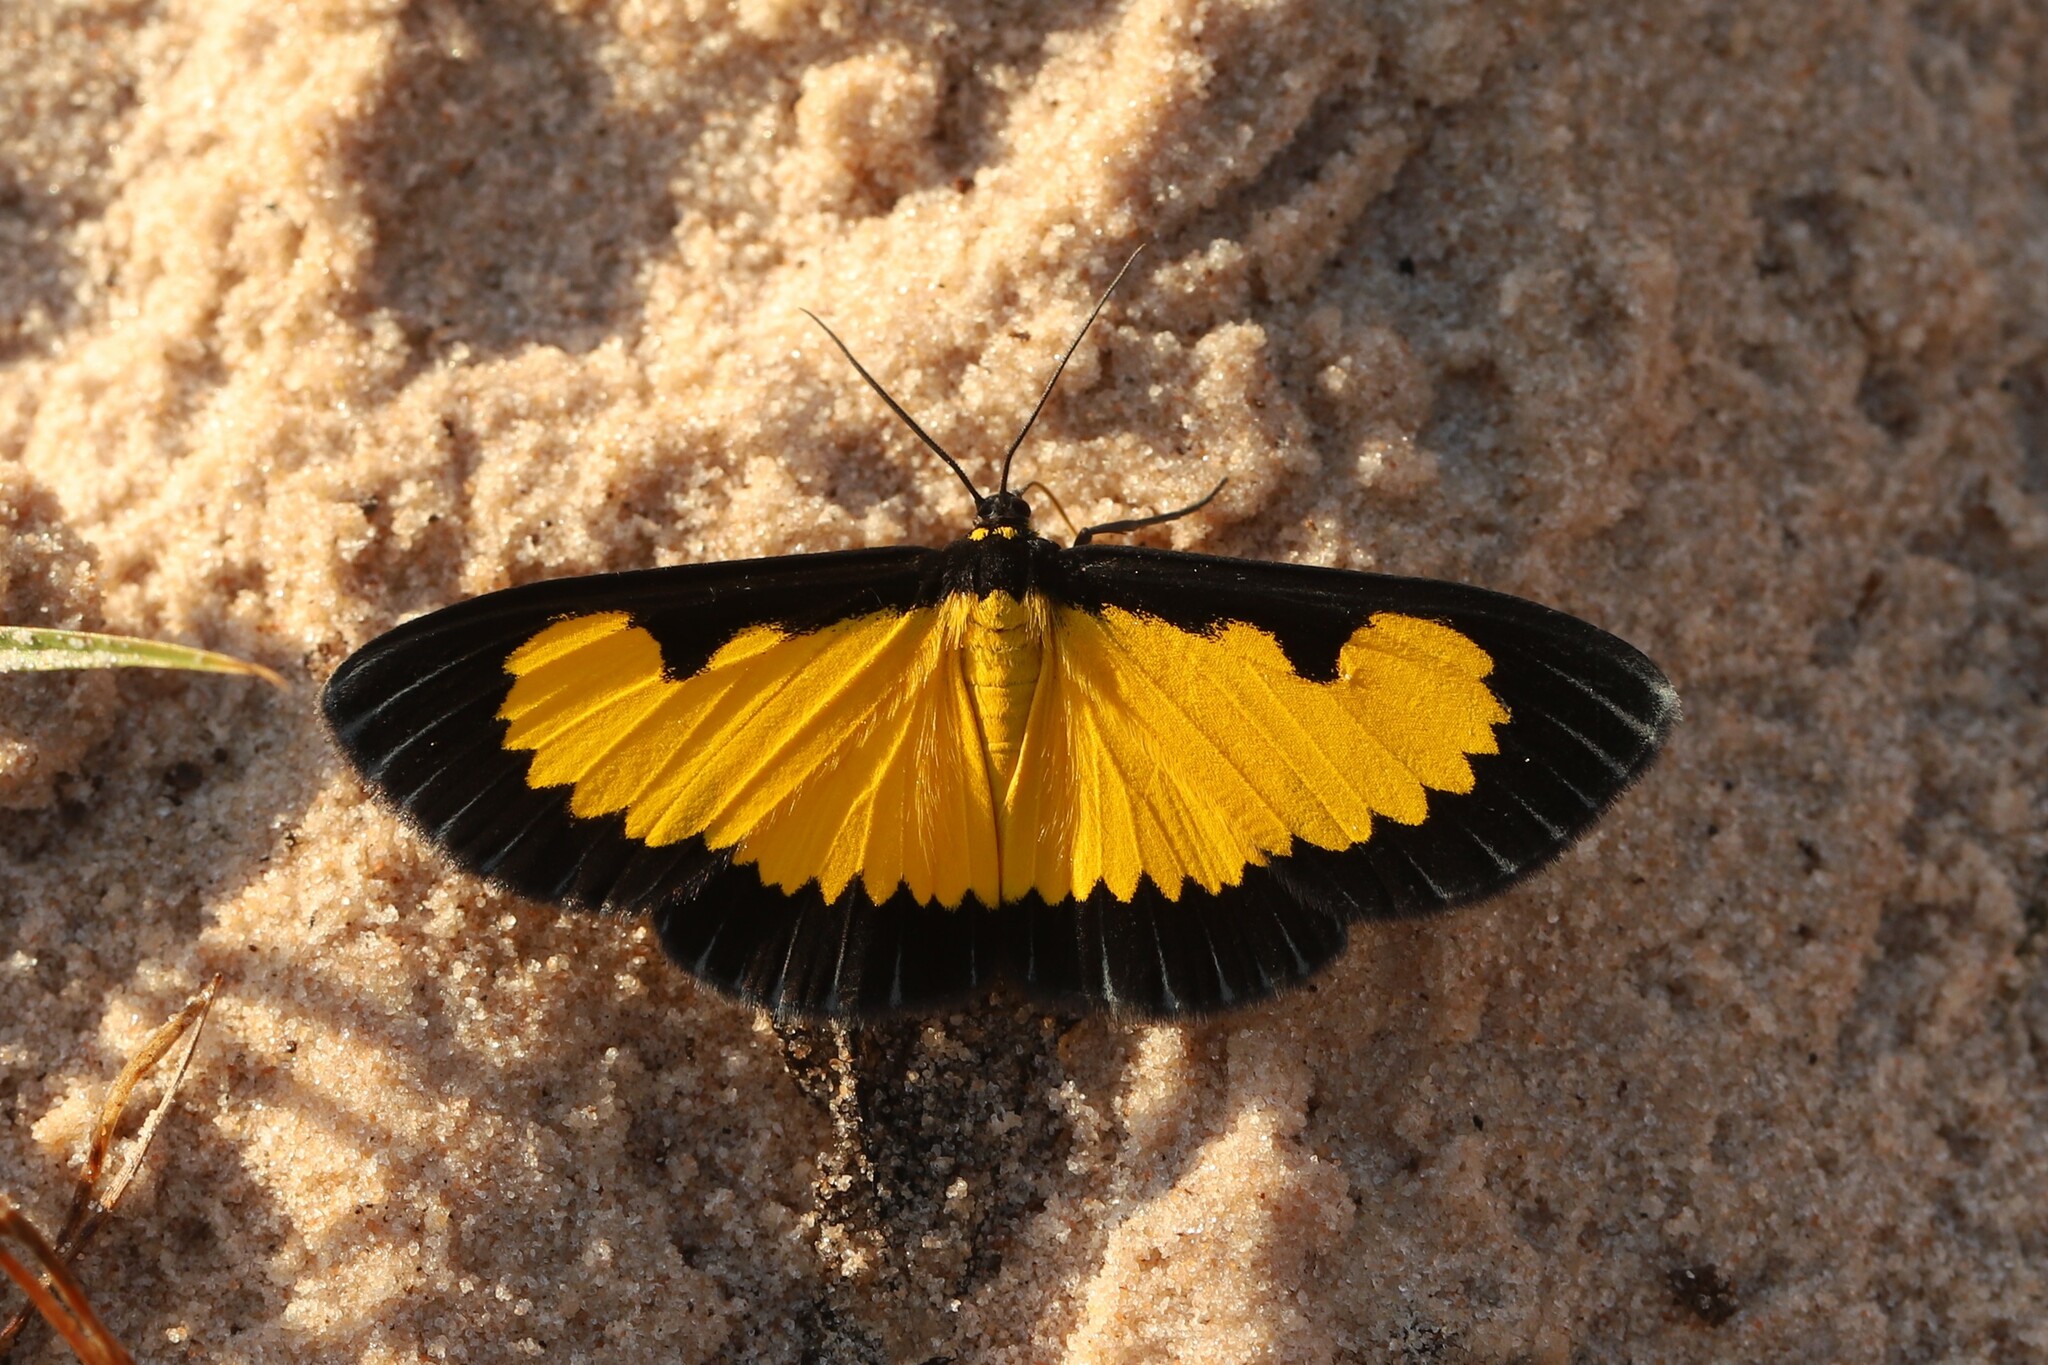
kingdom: Animalia
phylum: Arthropoda
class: Insecta
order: Lepidoptera
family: Geometridae
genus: Xanthyris
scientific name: Xanthyris flaveolata
